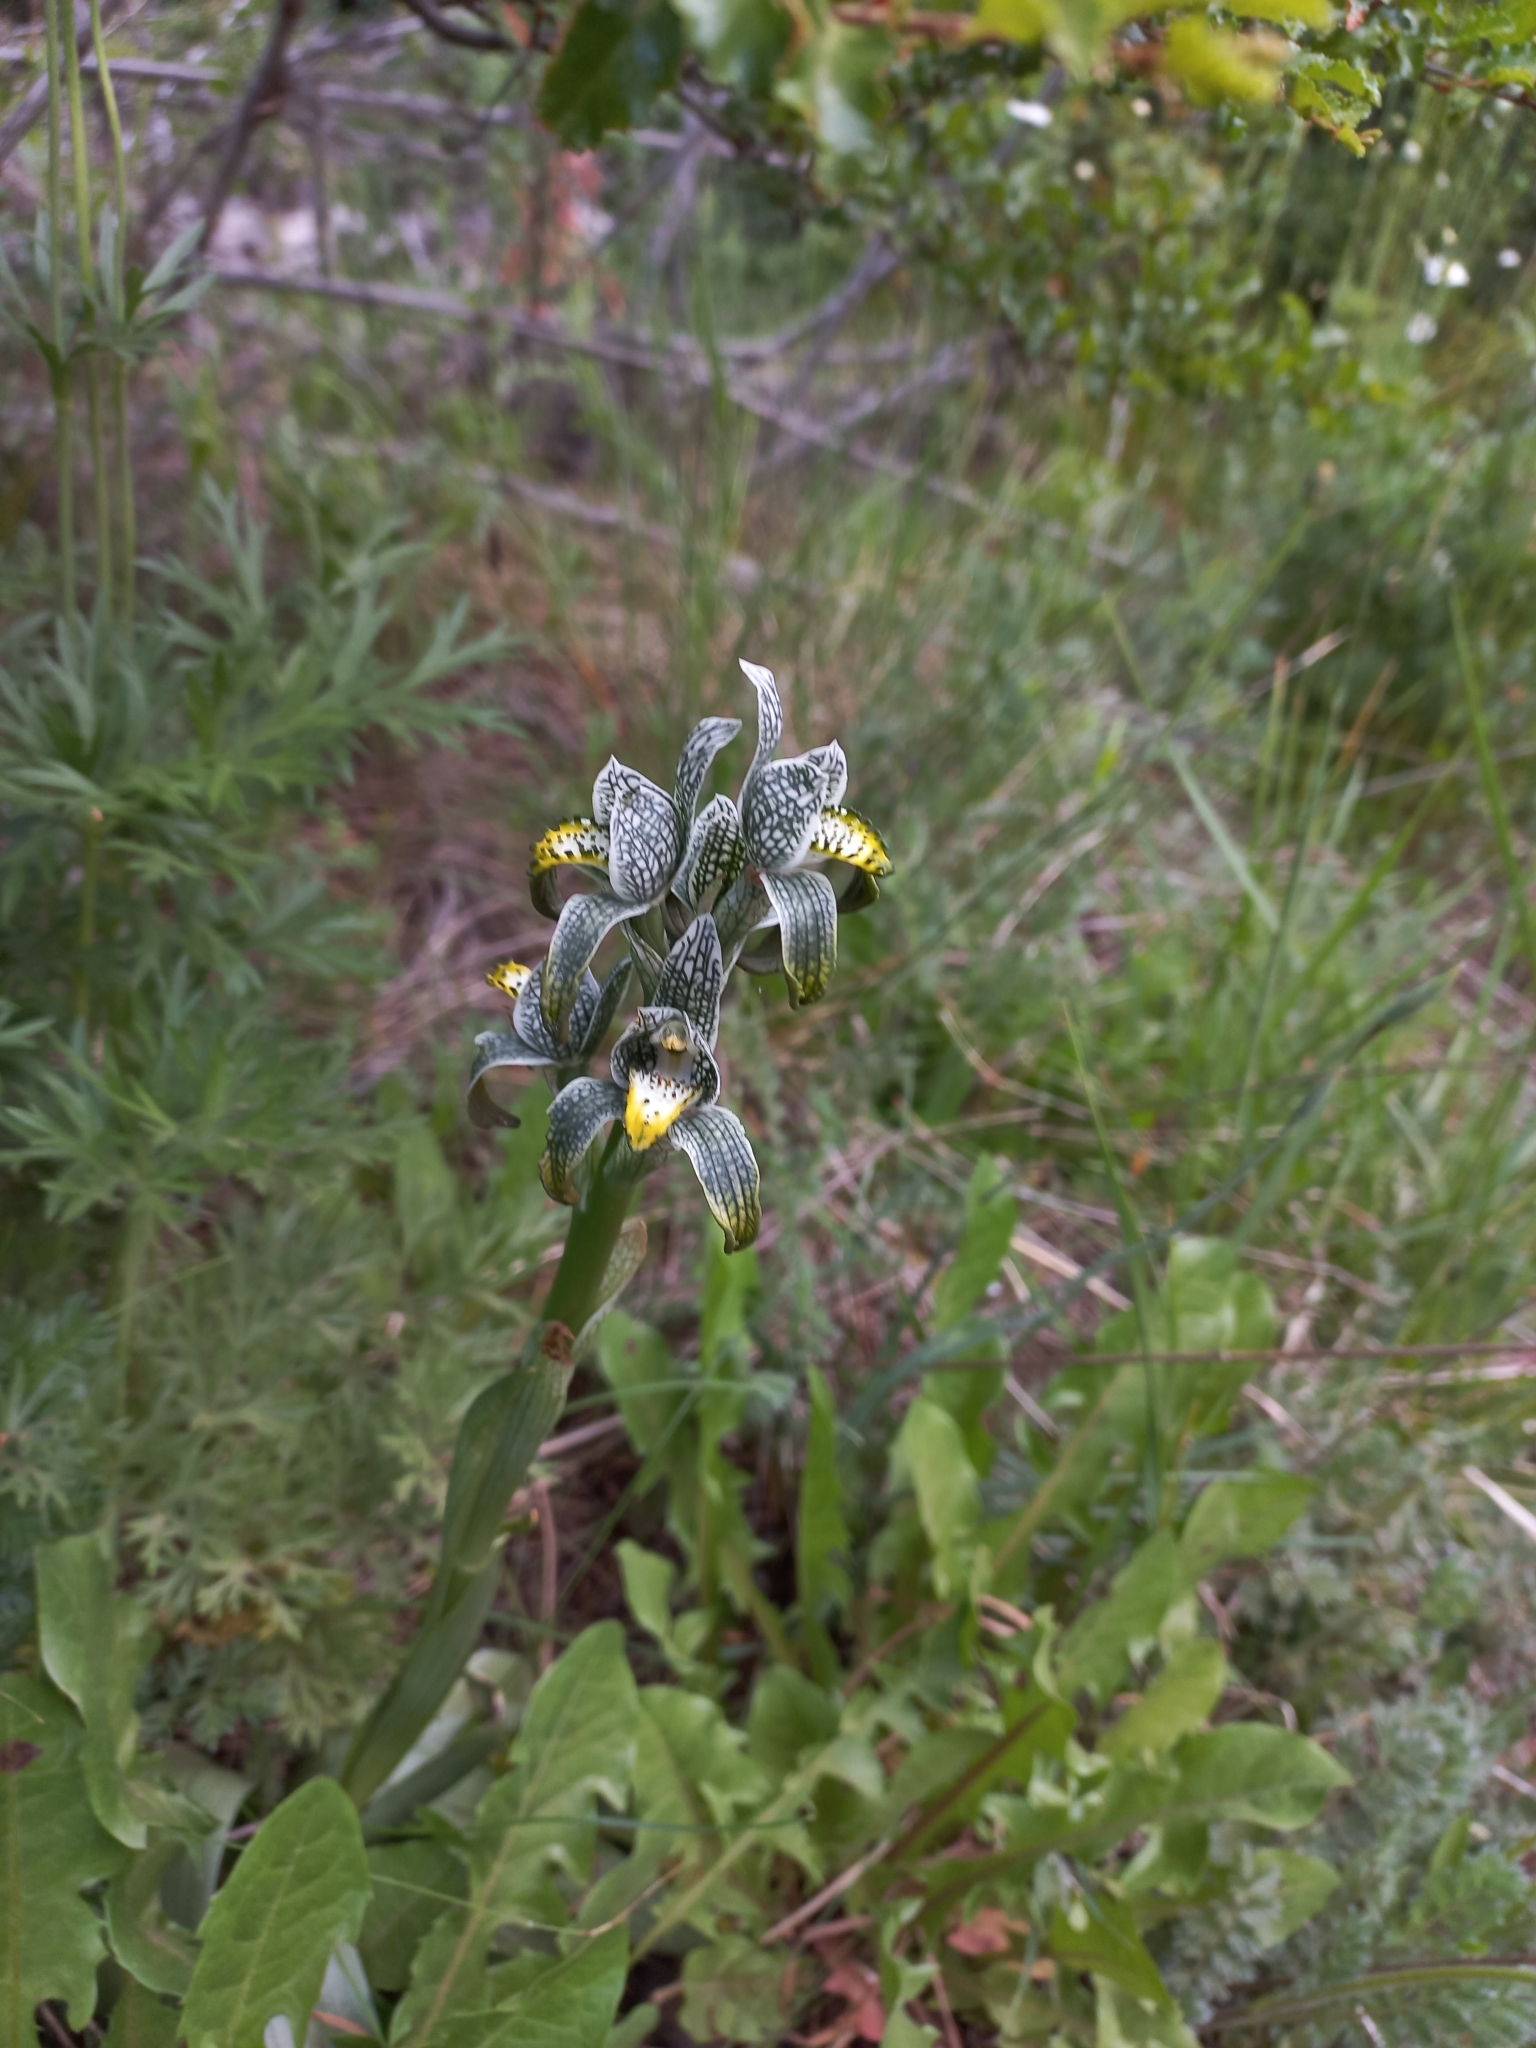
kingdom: Plantae
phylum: Tracheophyta
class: Liliopsida
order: Asparagales
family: Orchidaceae
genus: Chloraea
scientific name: Chloraea magellanica
